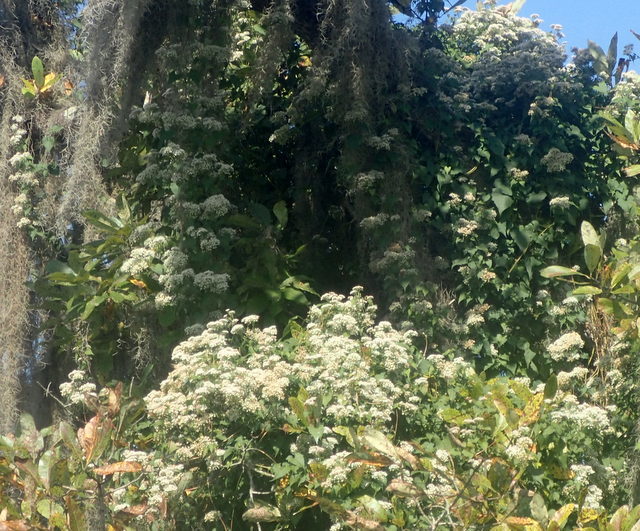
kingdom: Plantae
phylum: Tracheophyta
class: Magnoliopsida
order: Asterales
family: Asteraceae
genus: Mikania
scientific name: Mikania scandens
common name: Climbing hempvine
